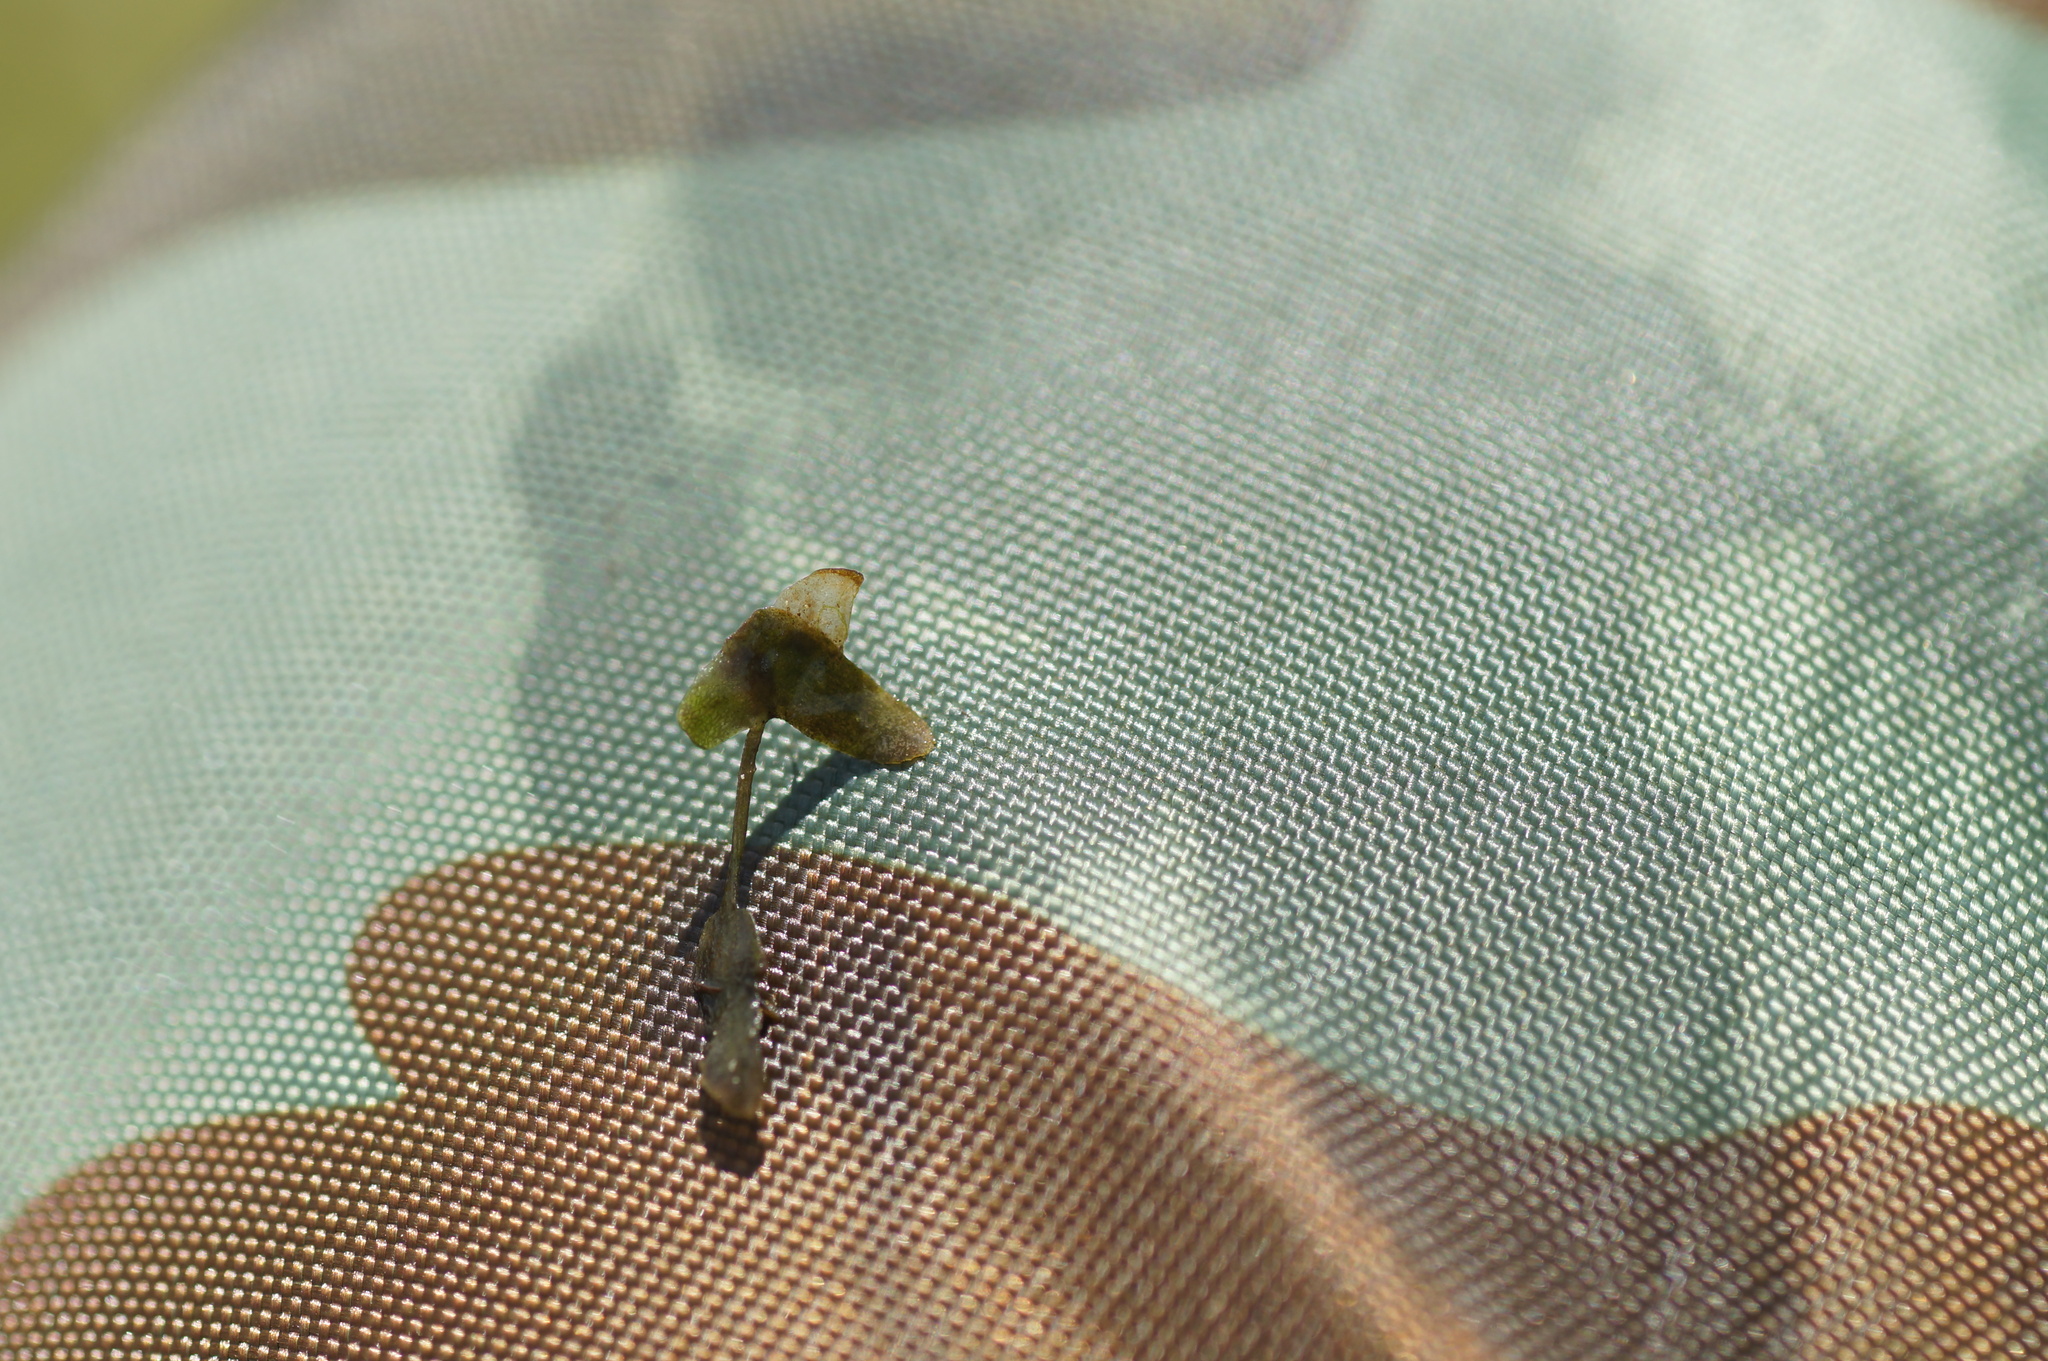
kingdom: Plantae
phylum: Tracheophyta
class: Liliopsida
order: Alismatales
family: Araceae
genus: Lemna
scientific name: Lemna trisulca
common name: Ivy-leaved duckweed
